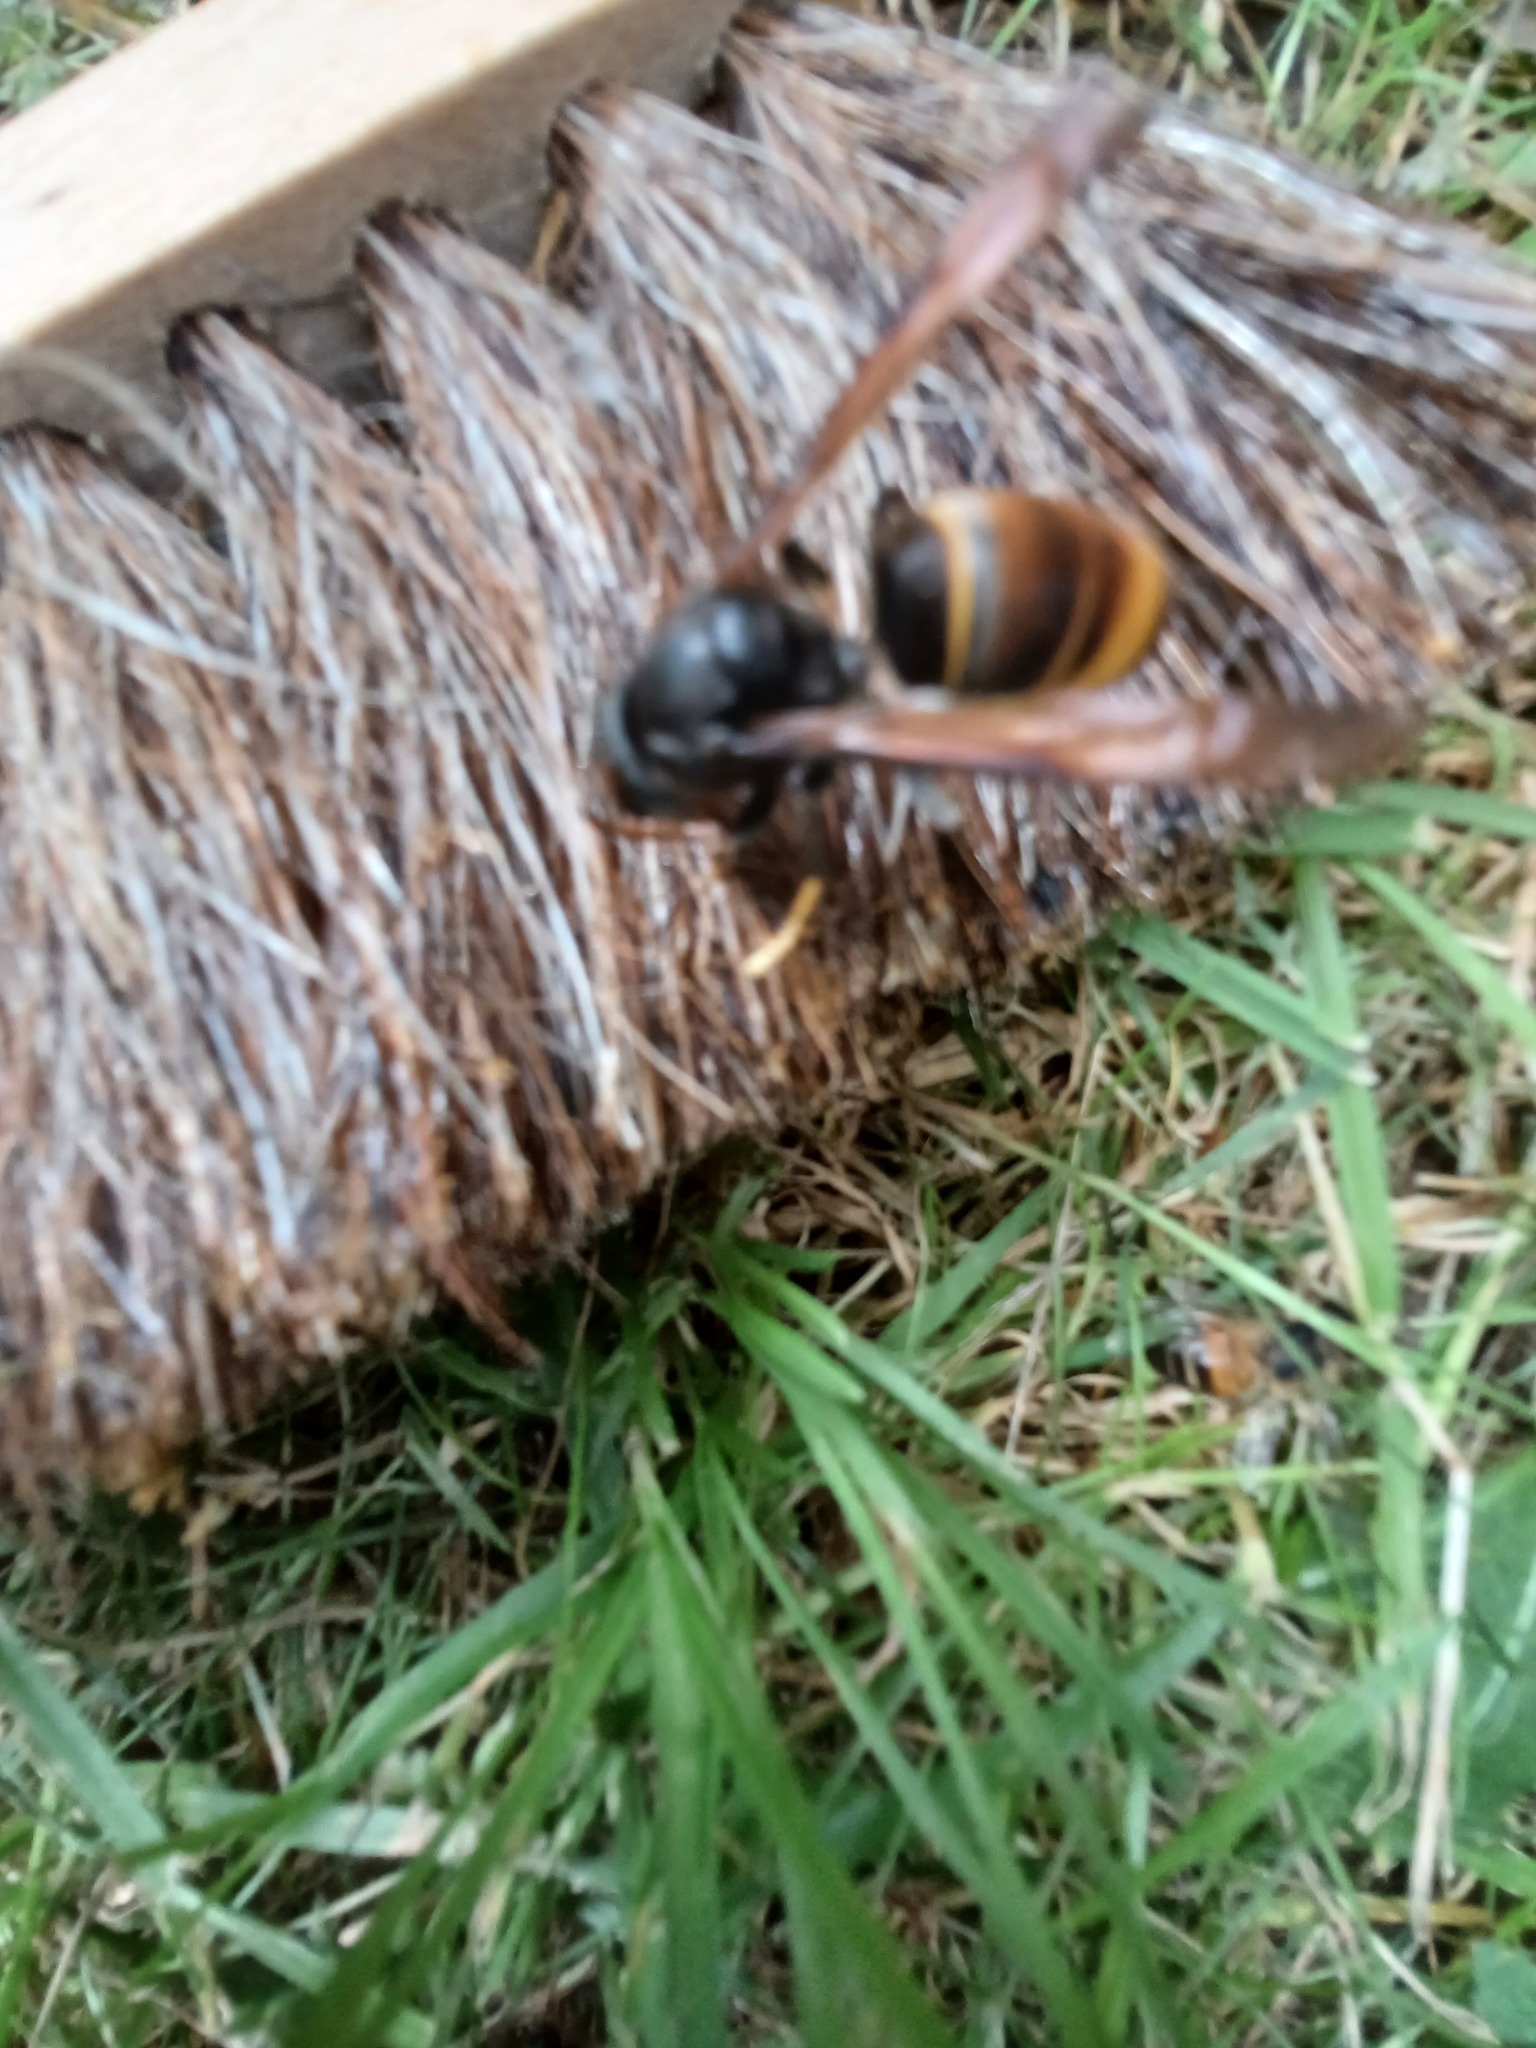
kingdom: Animalia
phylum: Arthropoda
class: Insecta
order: Hymenoptera
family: Vespidae
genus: Vespa
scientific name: Vespa velutina
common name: Asian hornet
